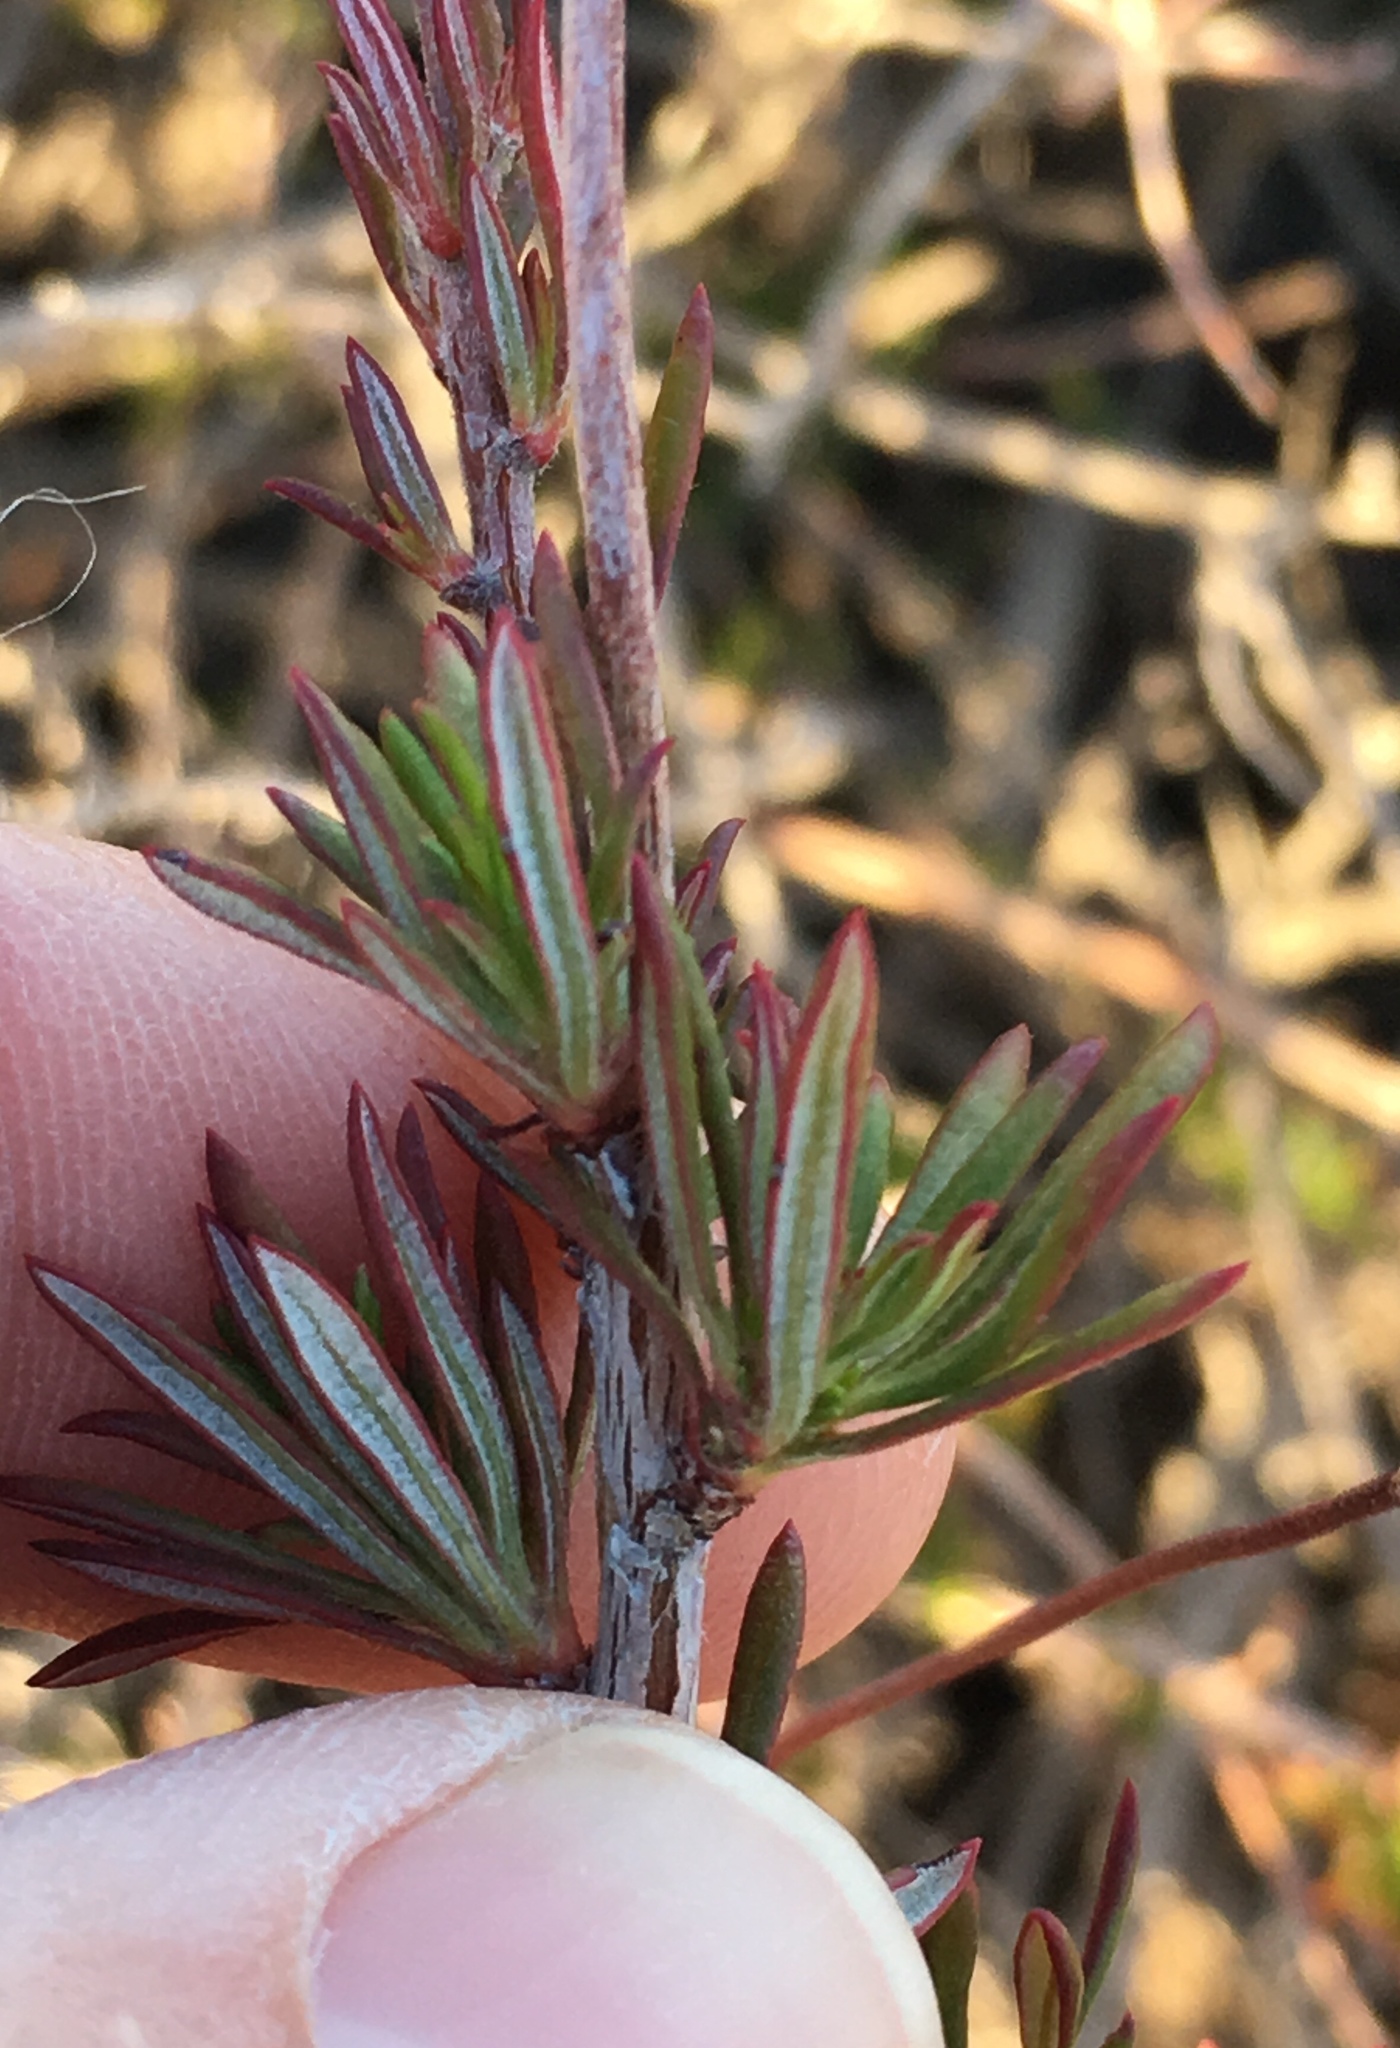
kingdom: Plantae
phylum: Tracheophyta
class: Magnoliopsida
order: Caryophyllales
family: Polygonaceae
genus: Eriogonum
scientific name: Eriogonum fasciculatum
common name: California wild buckwheat
